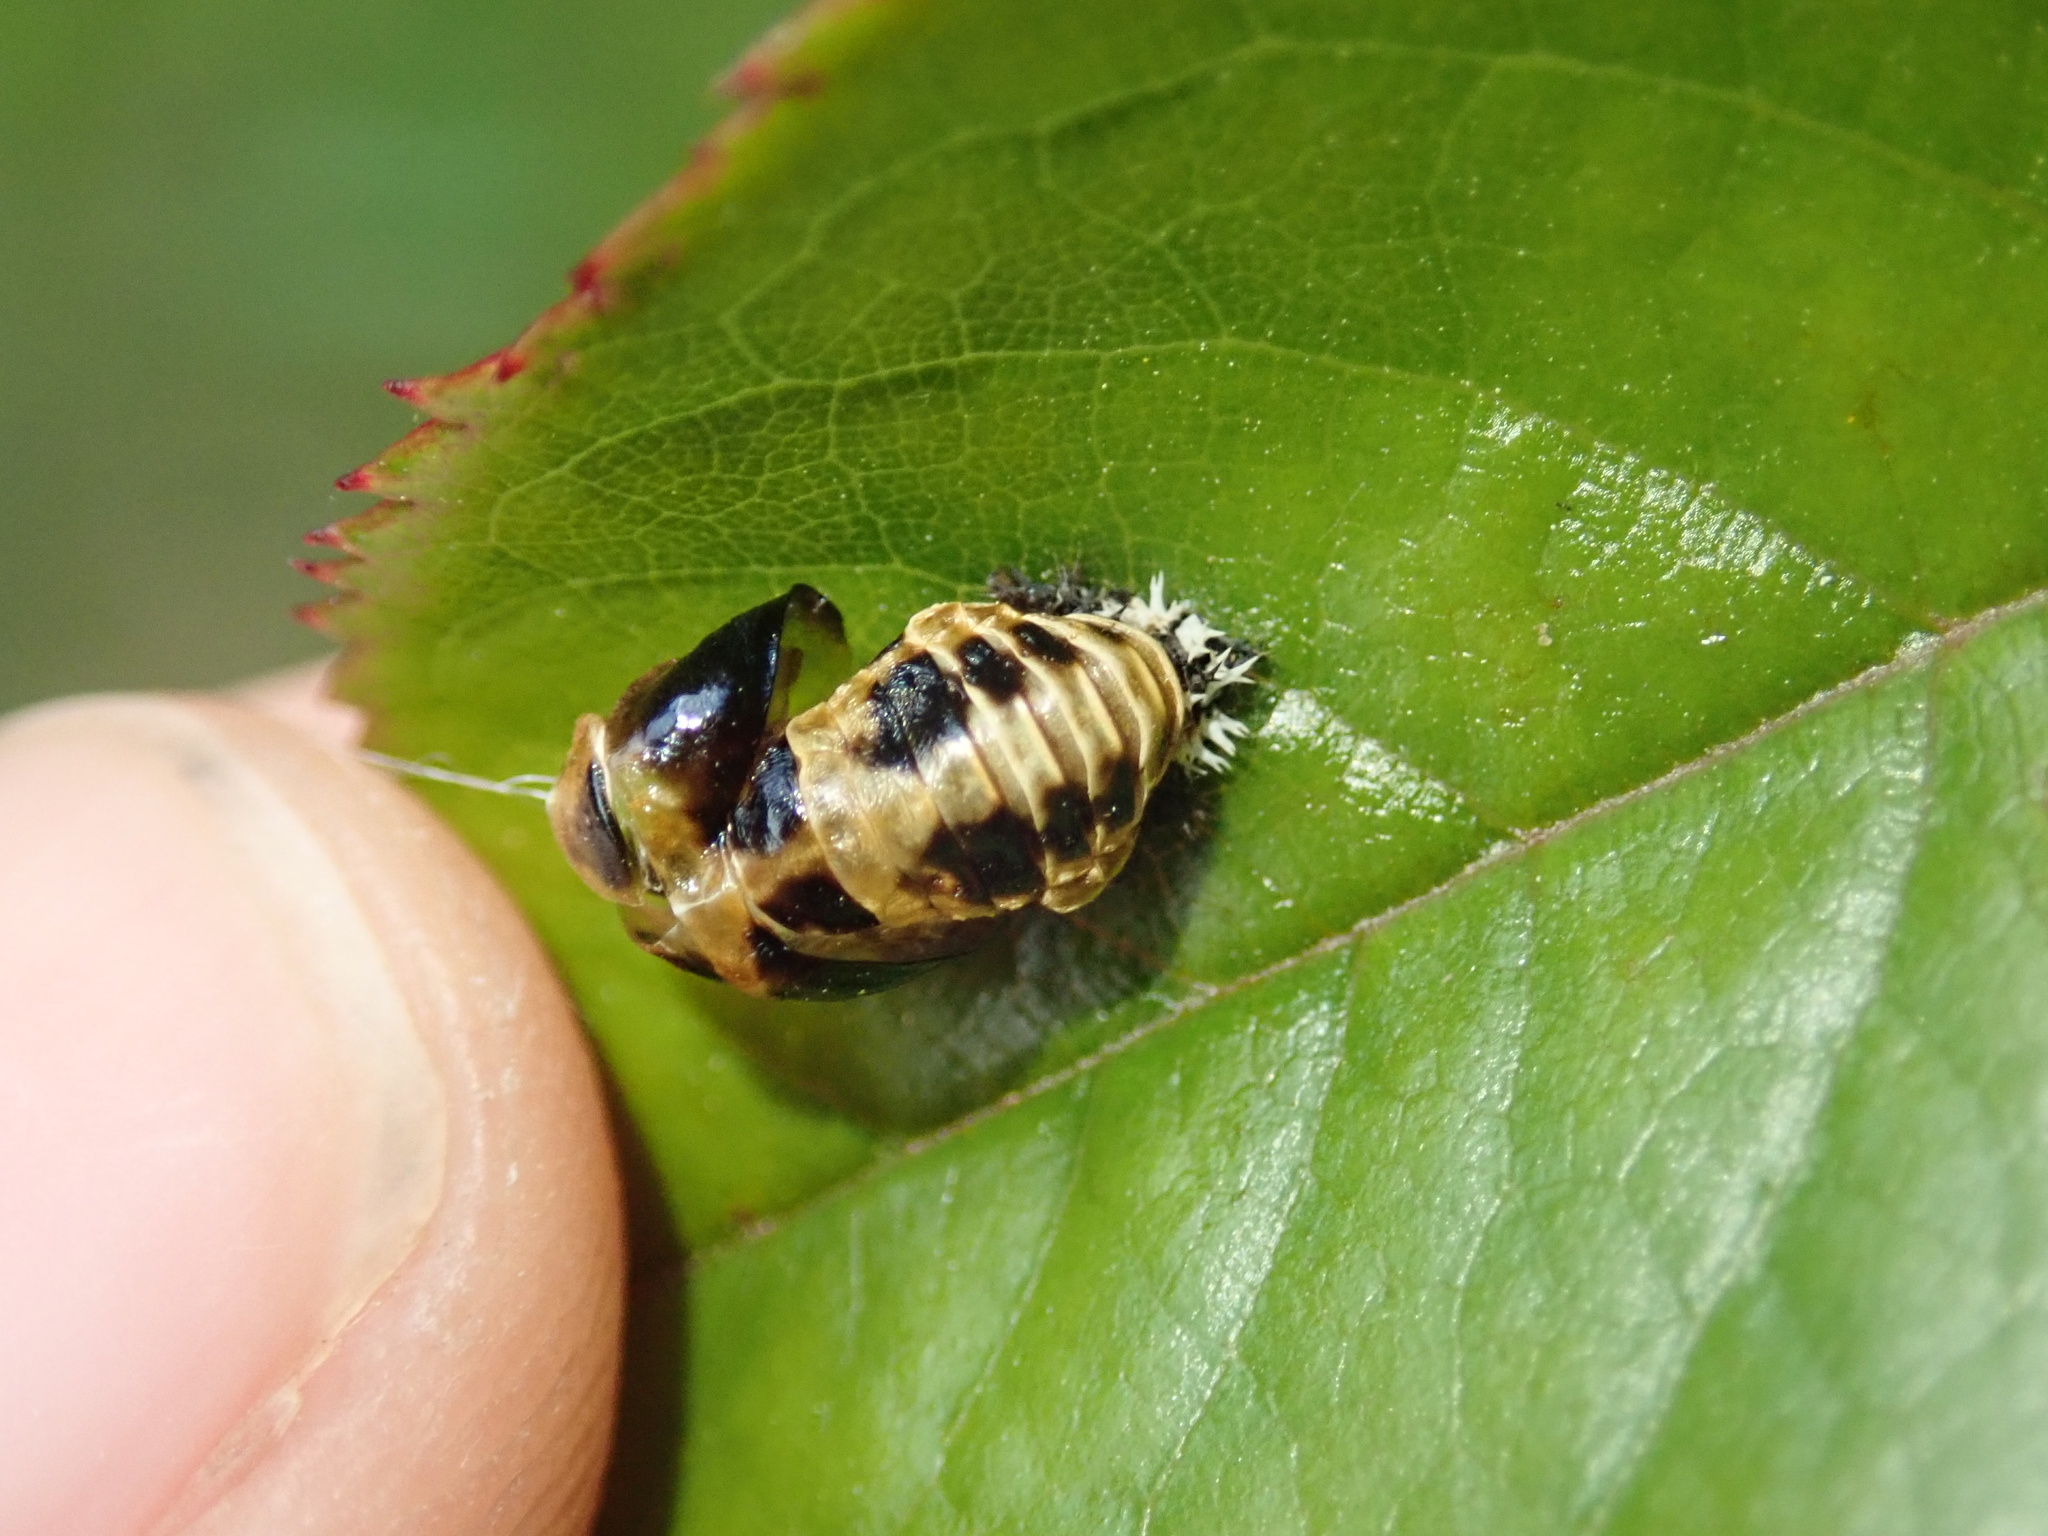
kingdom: Animalia
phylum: Arthropoda
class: Insecta
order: Coleoptera
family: Coccinellidae
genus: Harmonia
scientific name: Harmonia axyridis
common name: Harlequin ladybird
